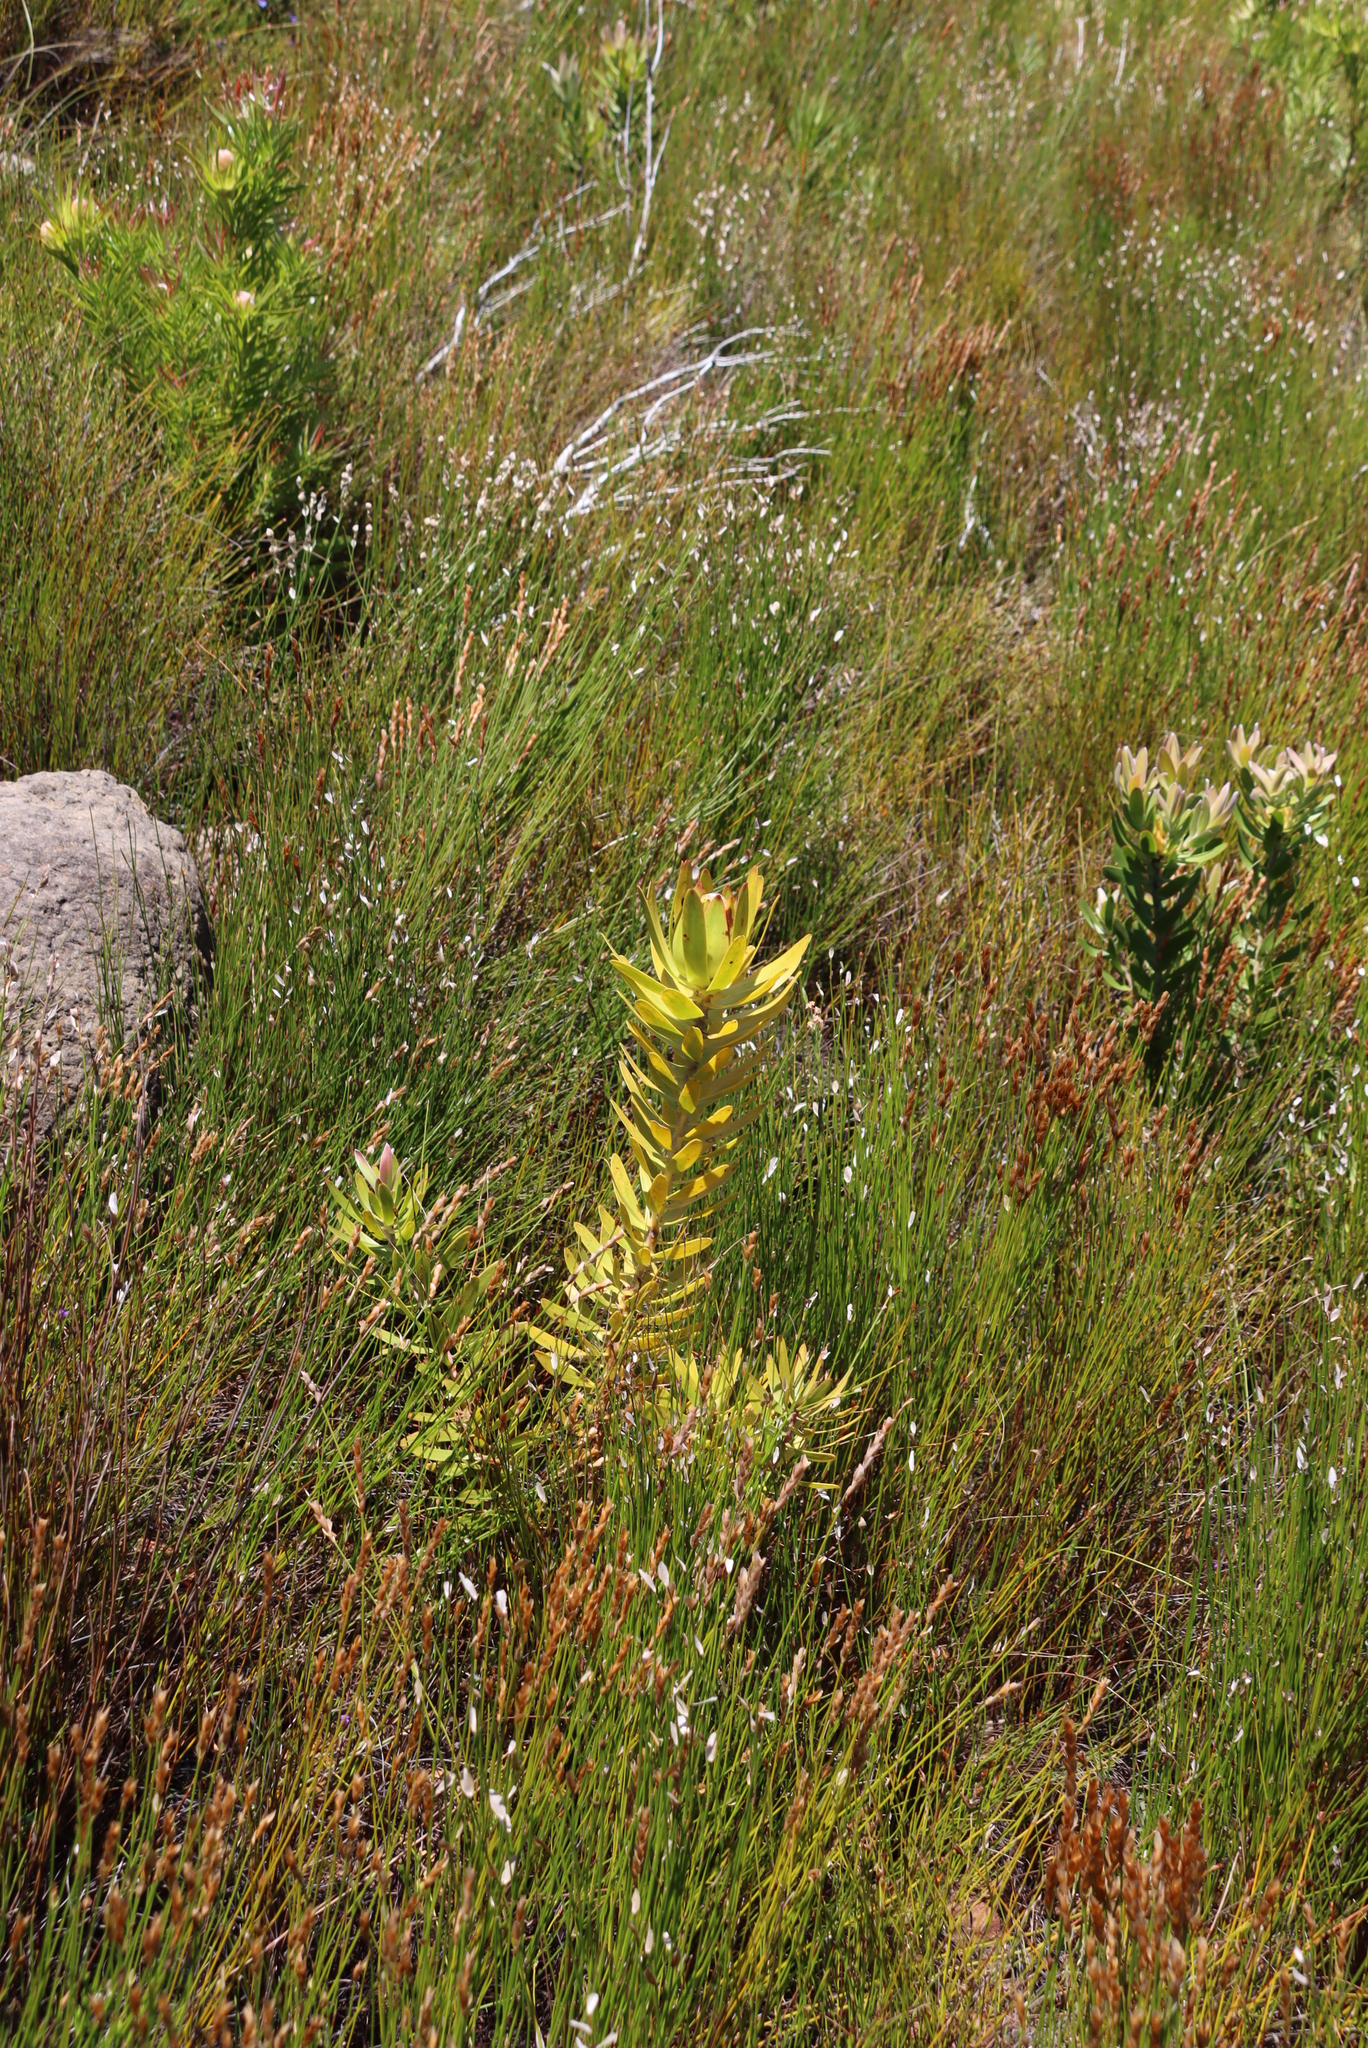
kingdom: Plantae
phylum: Tracheophyta
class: Magnoliopsida
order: Proteales
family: Proteaceae
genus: Leucadendron
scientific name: Leucadendron laureolum
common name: Golden sunshinebush
